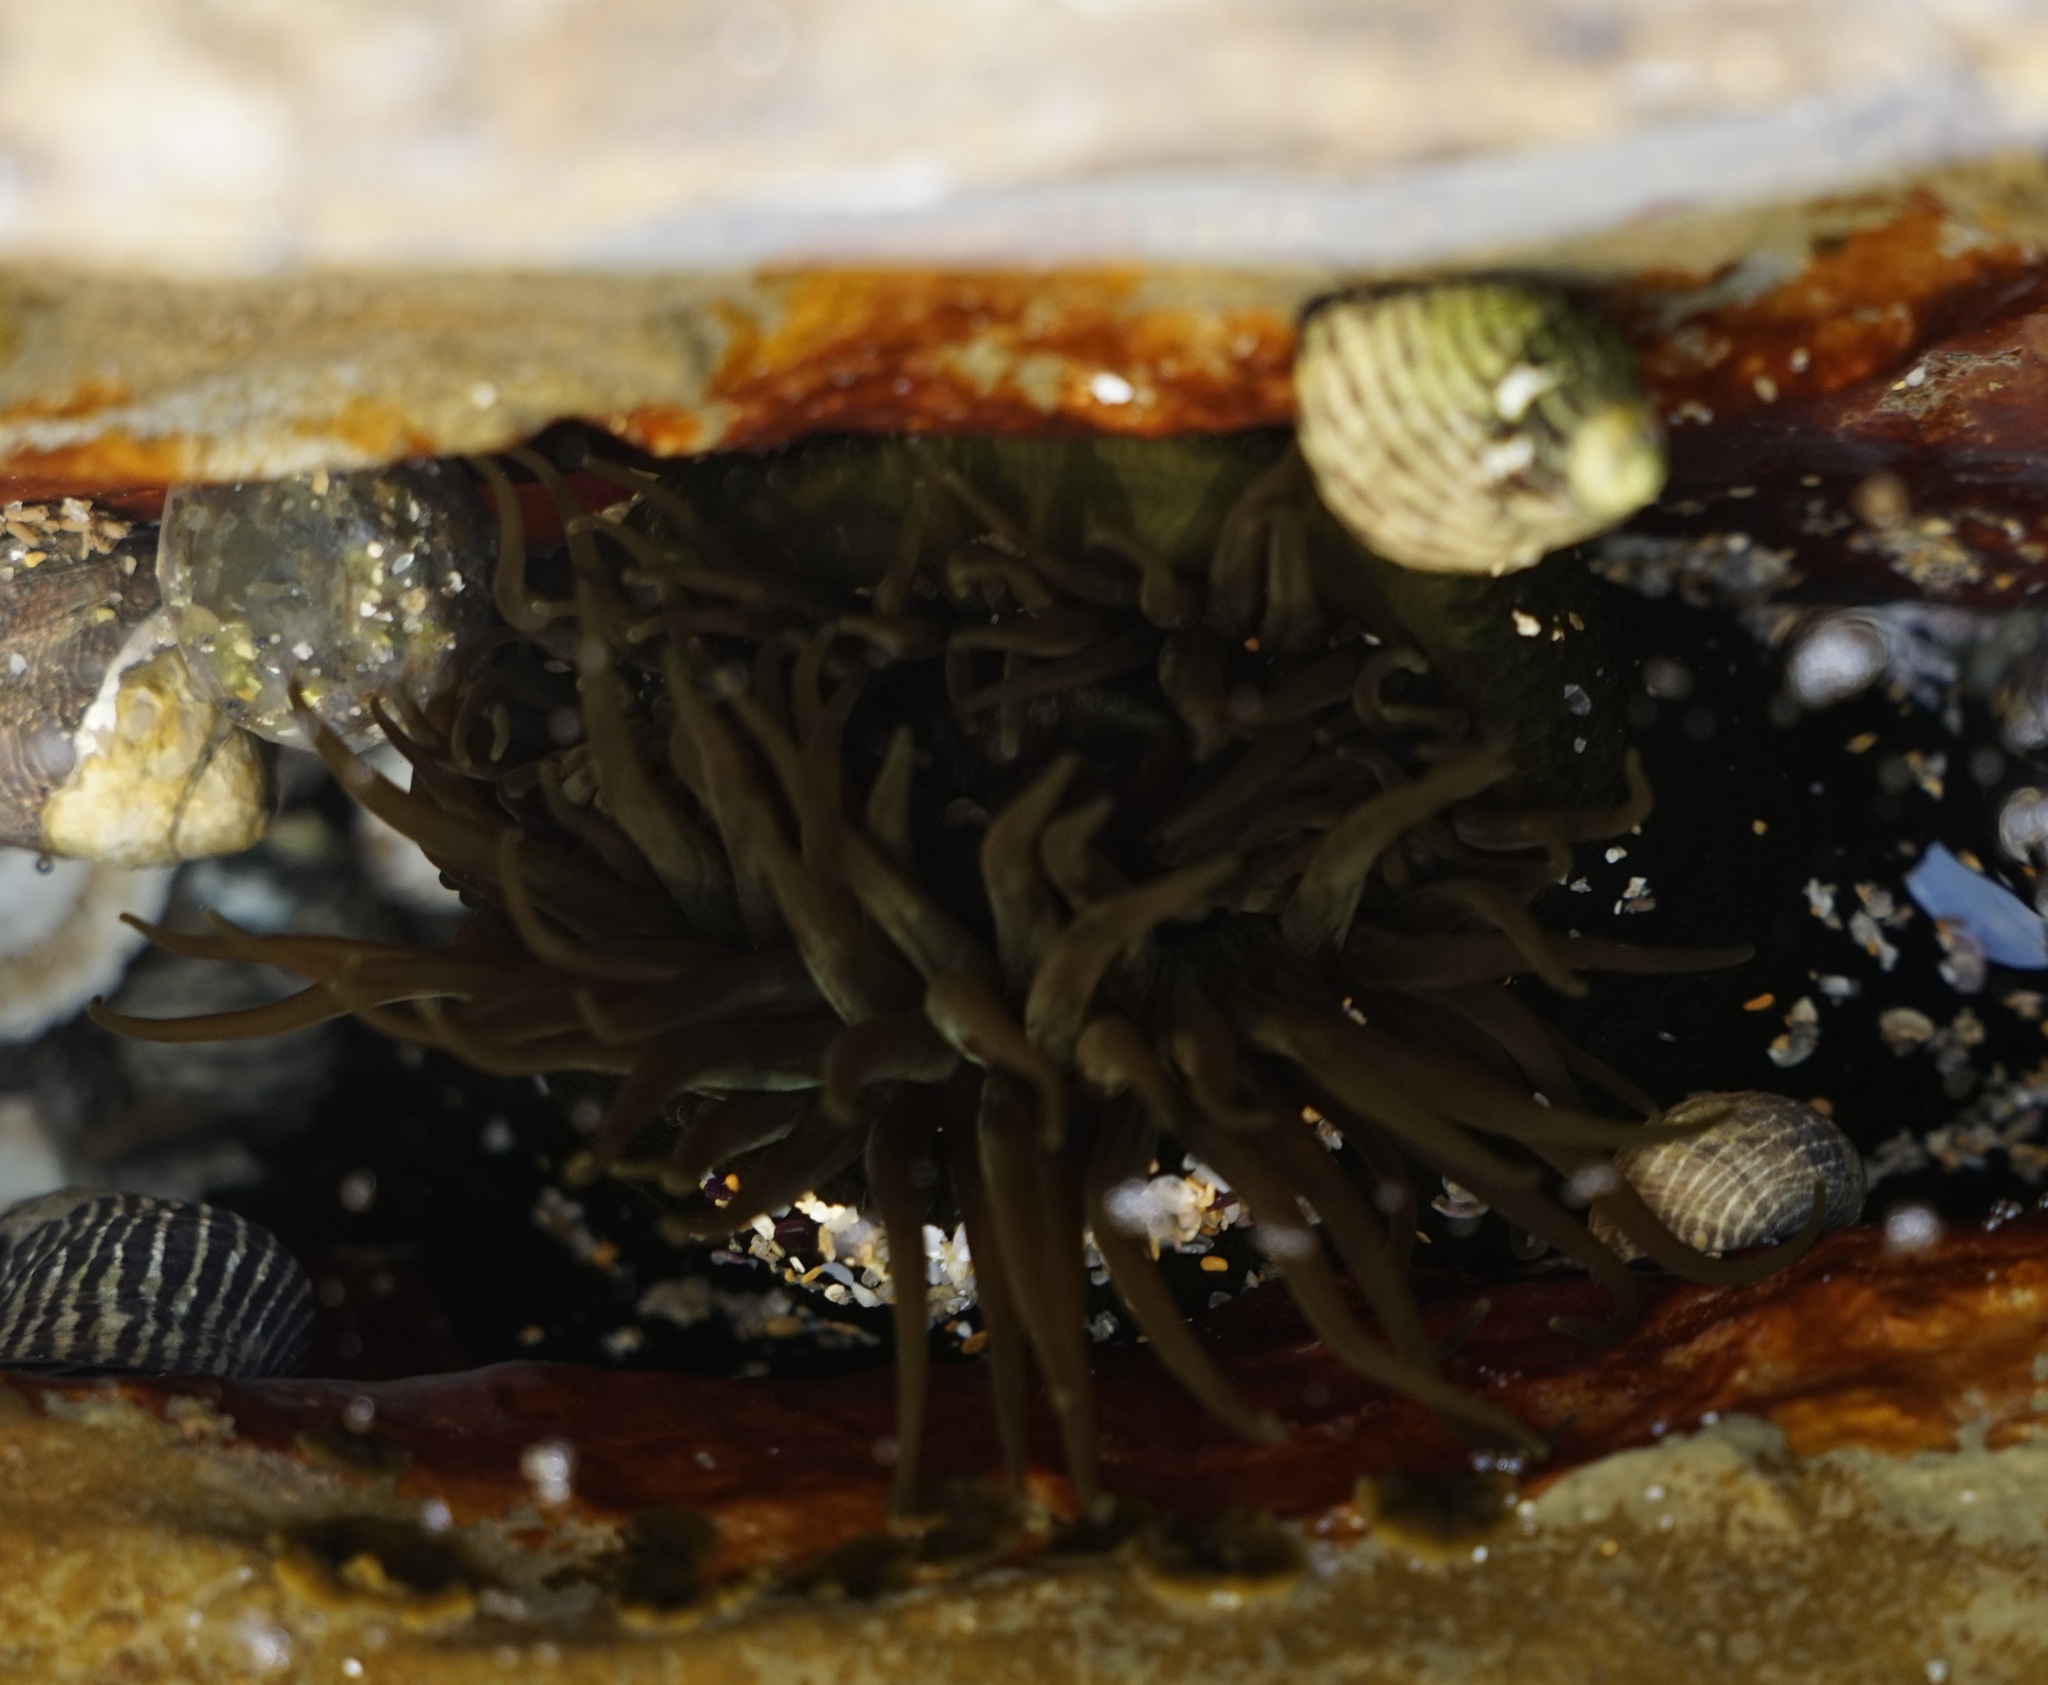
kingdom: Animalia
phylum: Cnidaria
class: Anthozoa
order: Actiniaria
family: Actiniidae
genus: Aulactinia
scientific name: Aulactinia veratra
